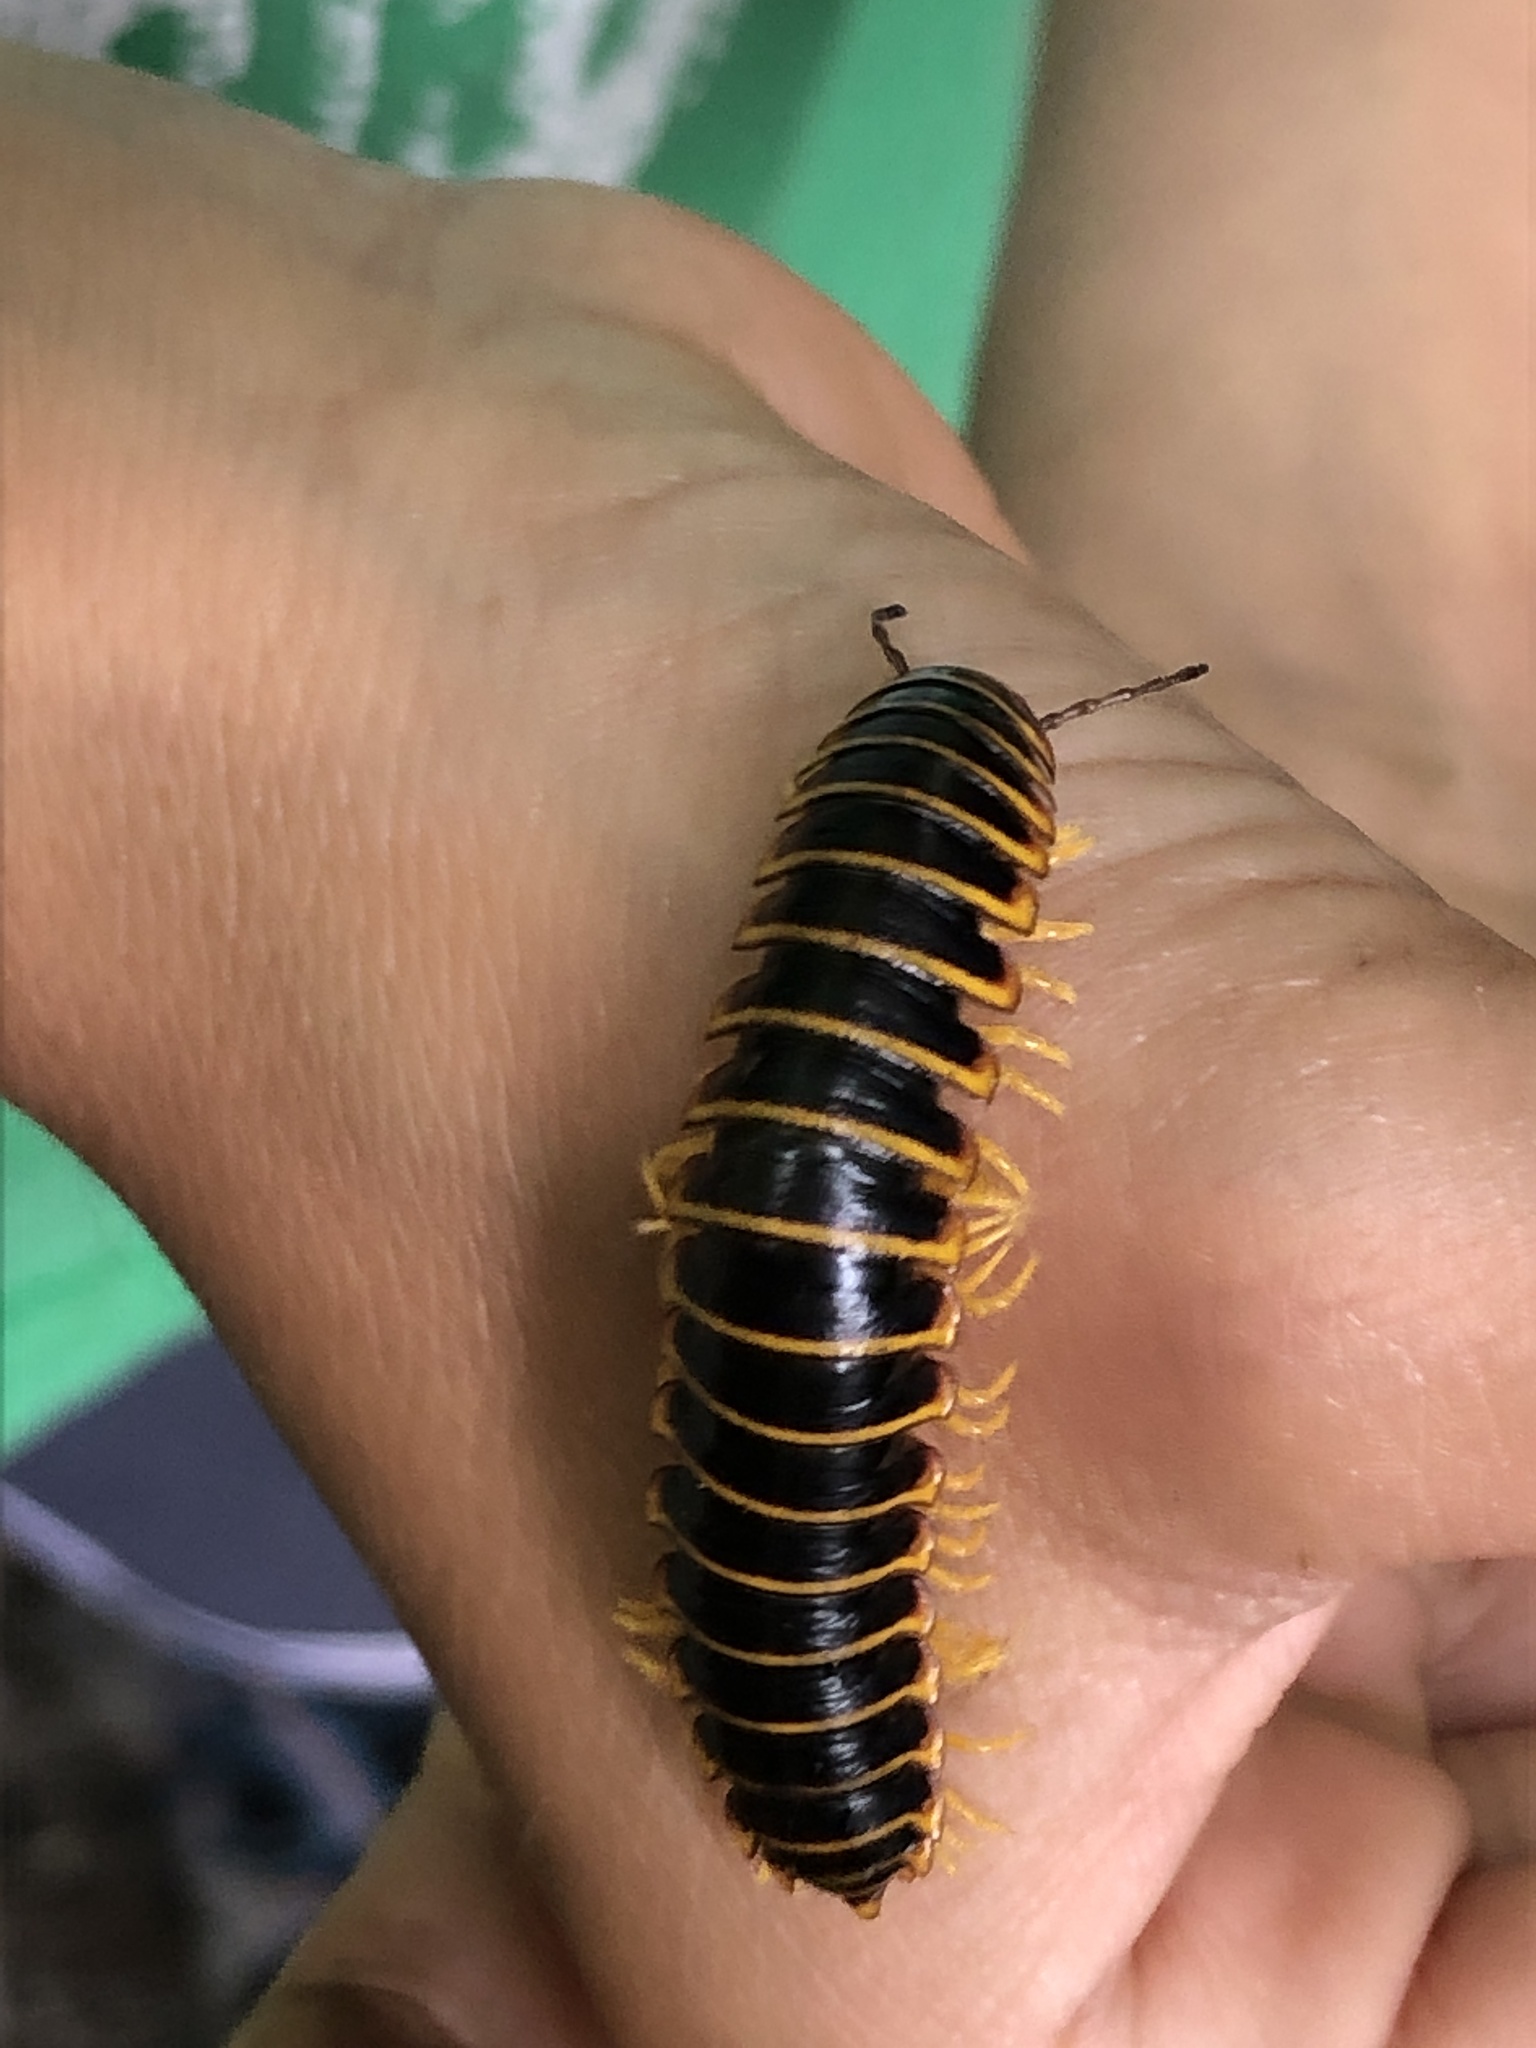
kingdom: Animalia
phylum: Arthropoda
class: Diplopoda
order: Polydesmida
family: Xystodesmidae
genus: Apheloria
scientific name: Apheloria virginiensis
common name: Black-and-gold flat millipede
